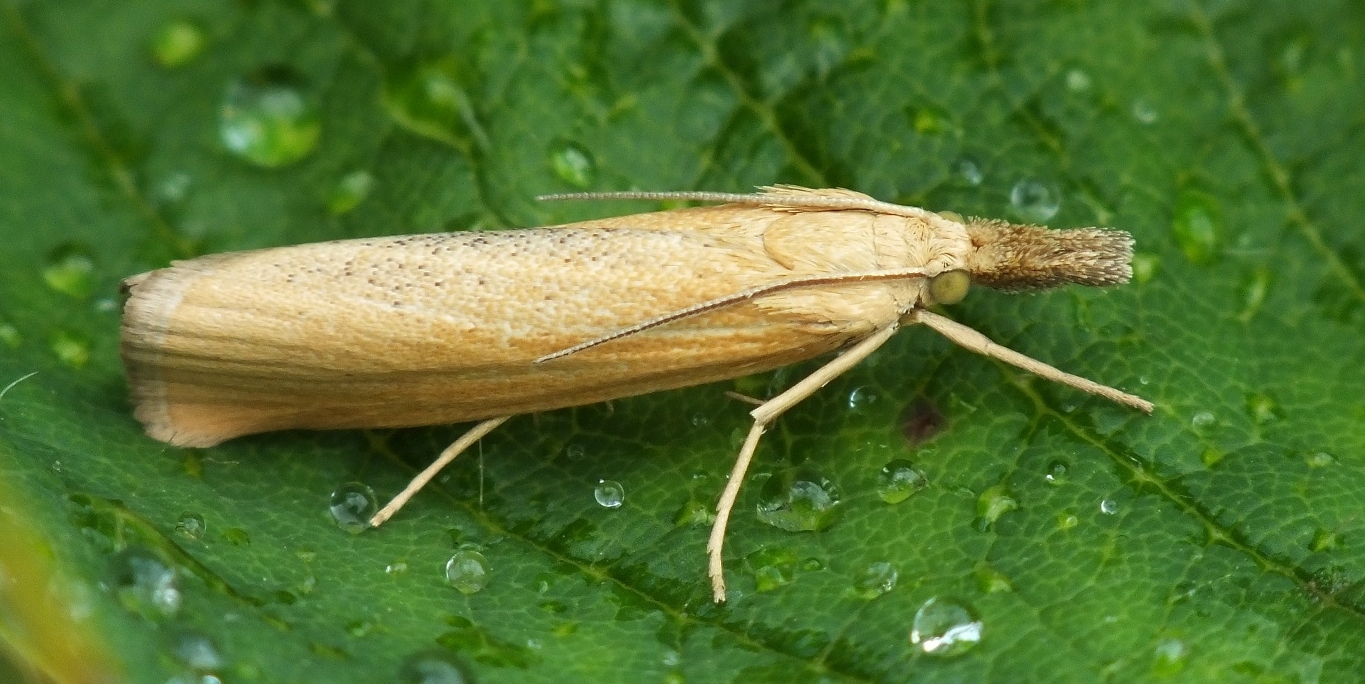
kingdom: Animalia
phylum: Arthropoda
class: Insecta
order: Lepidoptera
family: Crambidae
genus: Pediasia
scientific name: Pediasia luteella
